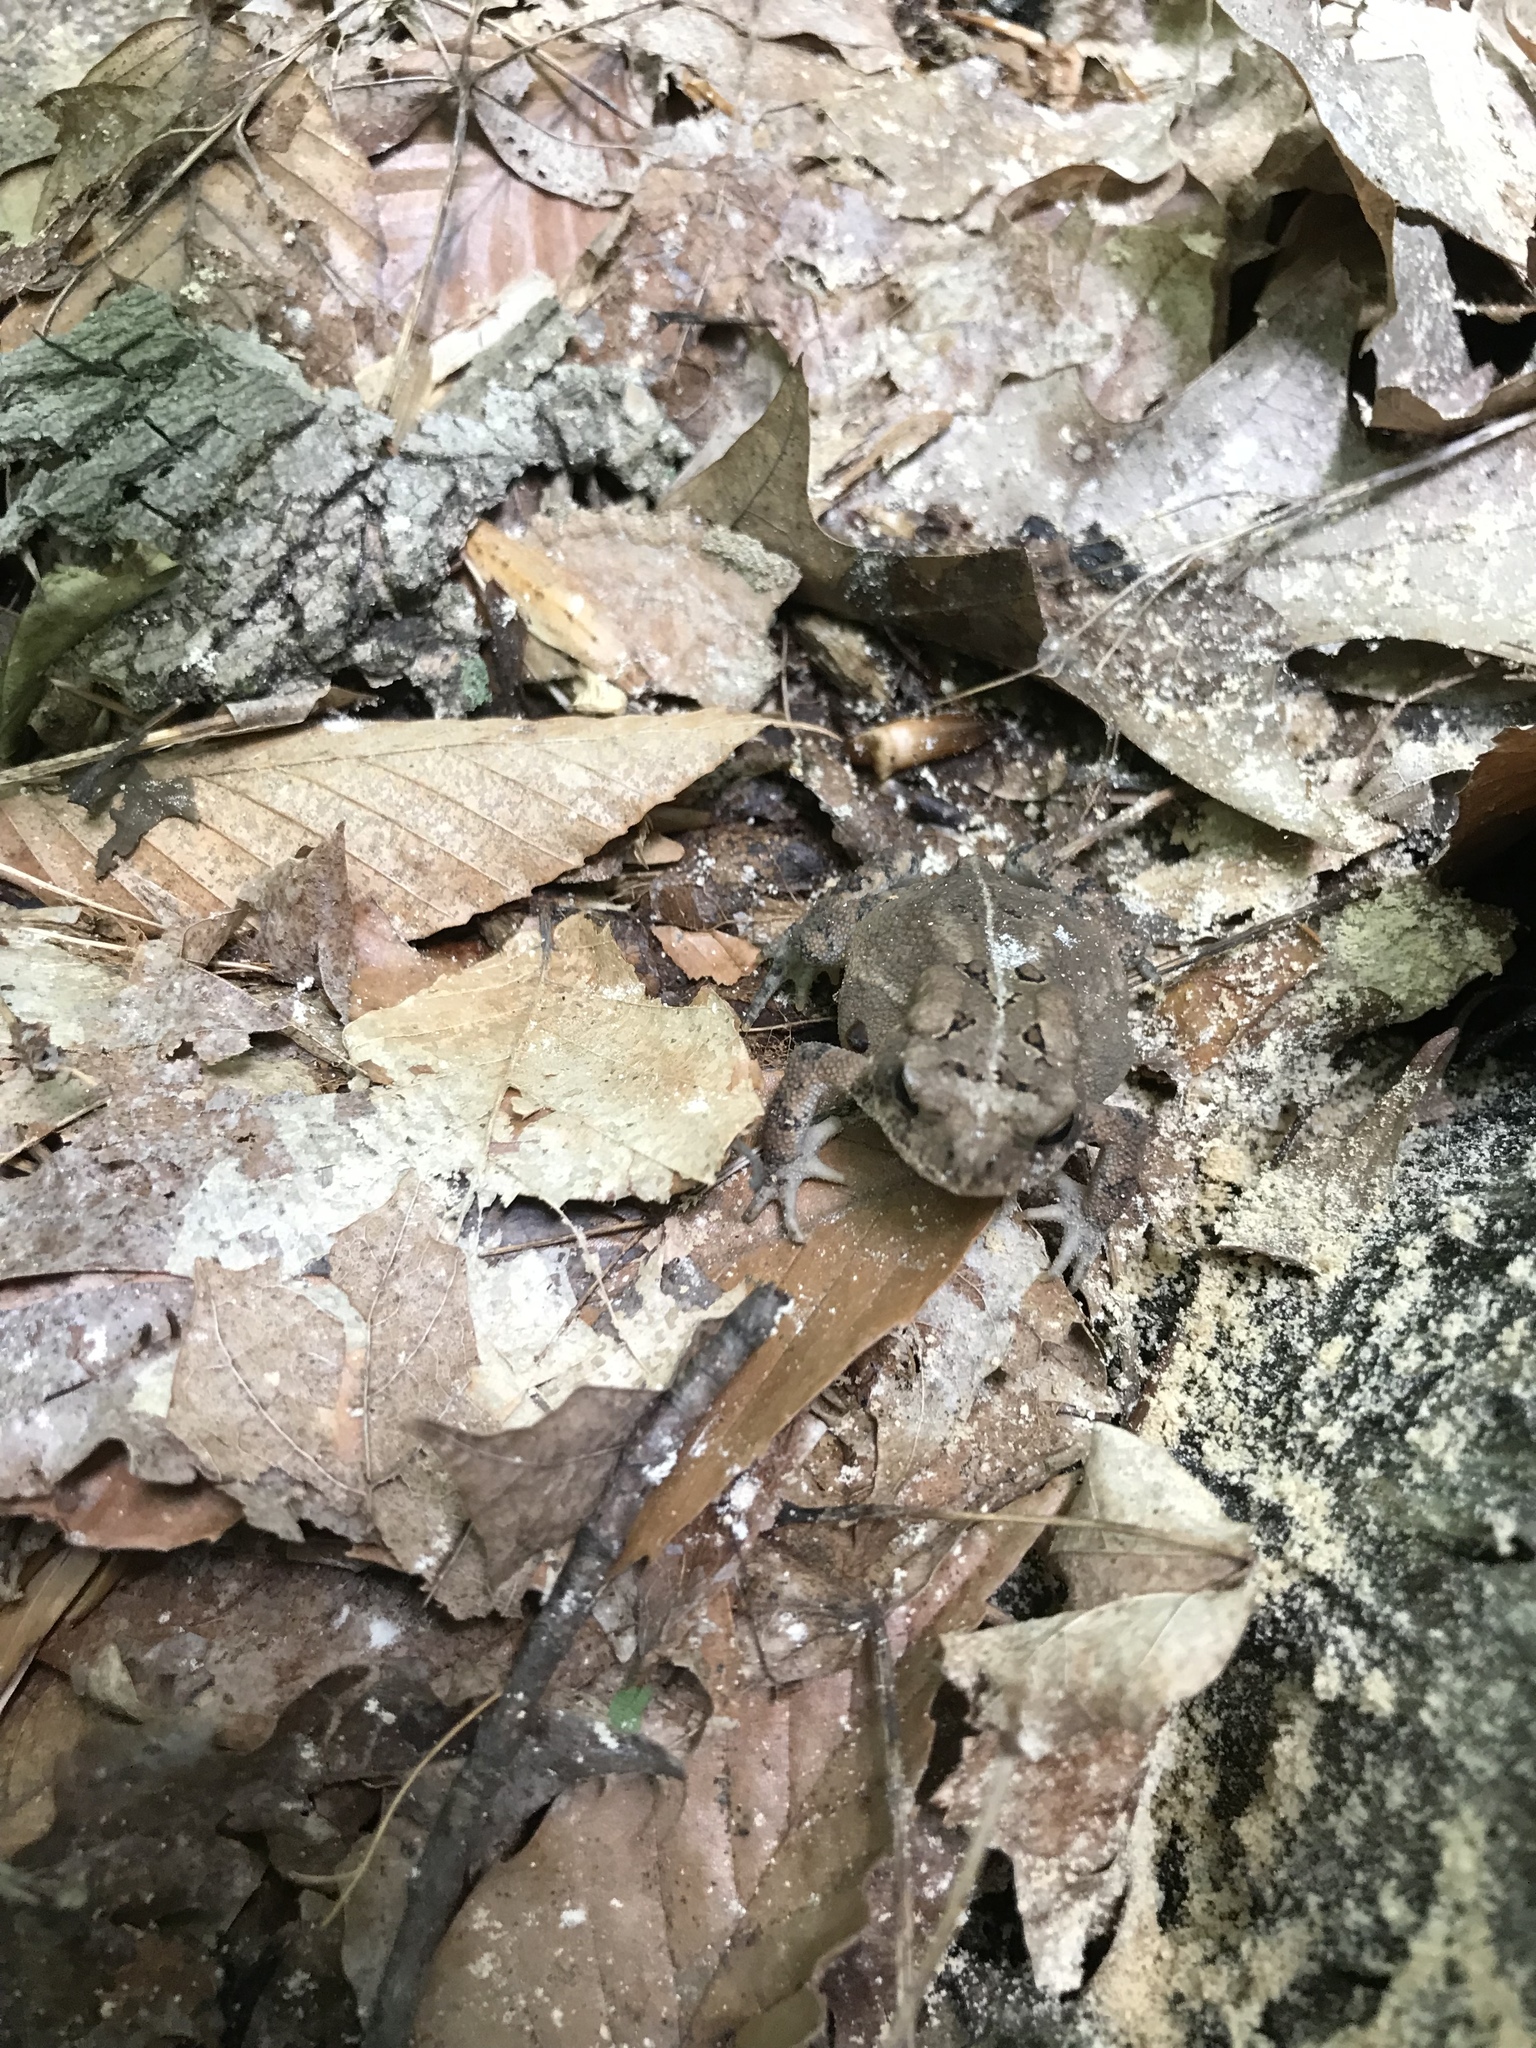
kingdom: Animalia
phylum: Chordata
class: Amphibia
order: Anura
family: Bufonidae
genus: Anaxyrus
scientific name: Anaxyrus americanus
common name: American toad
